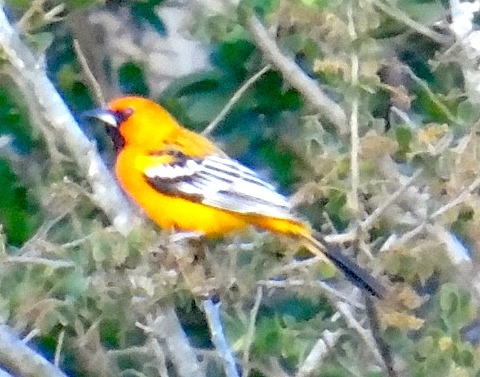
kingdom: Animalia
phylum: Chordata
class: Aves
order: Passeriformes
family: Icteridae
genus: Icterus
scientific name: Icterus pustulatus
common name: Streak-backed oriole
